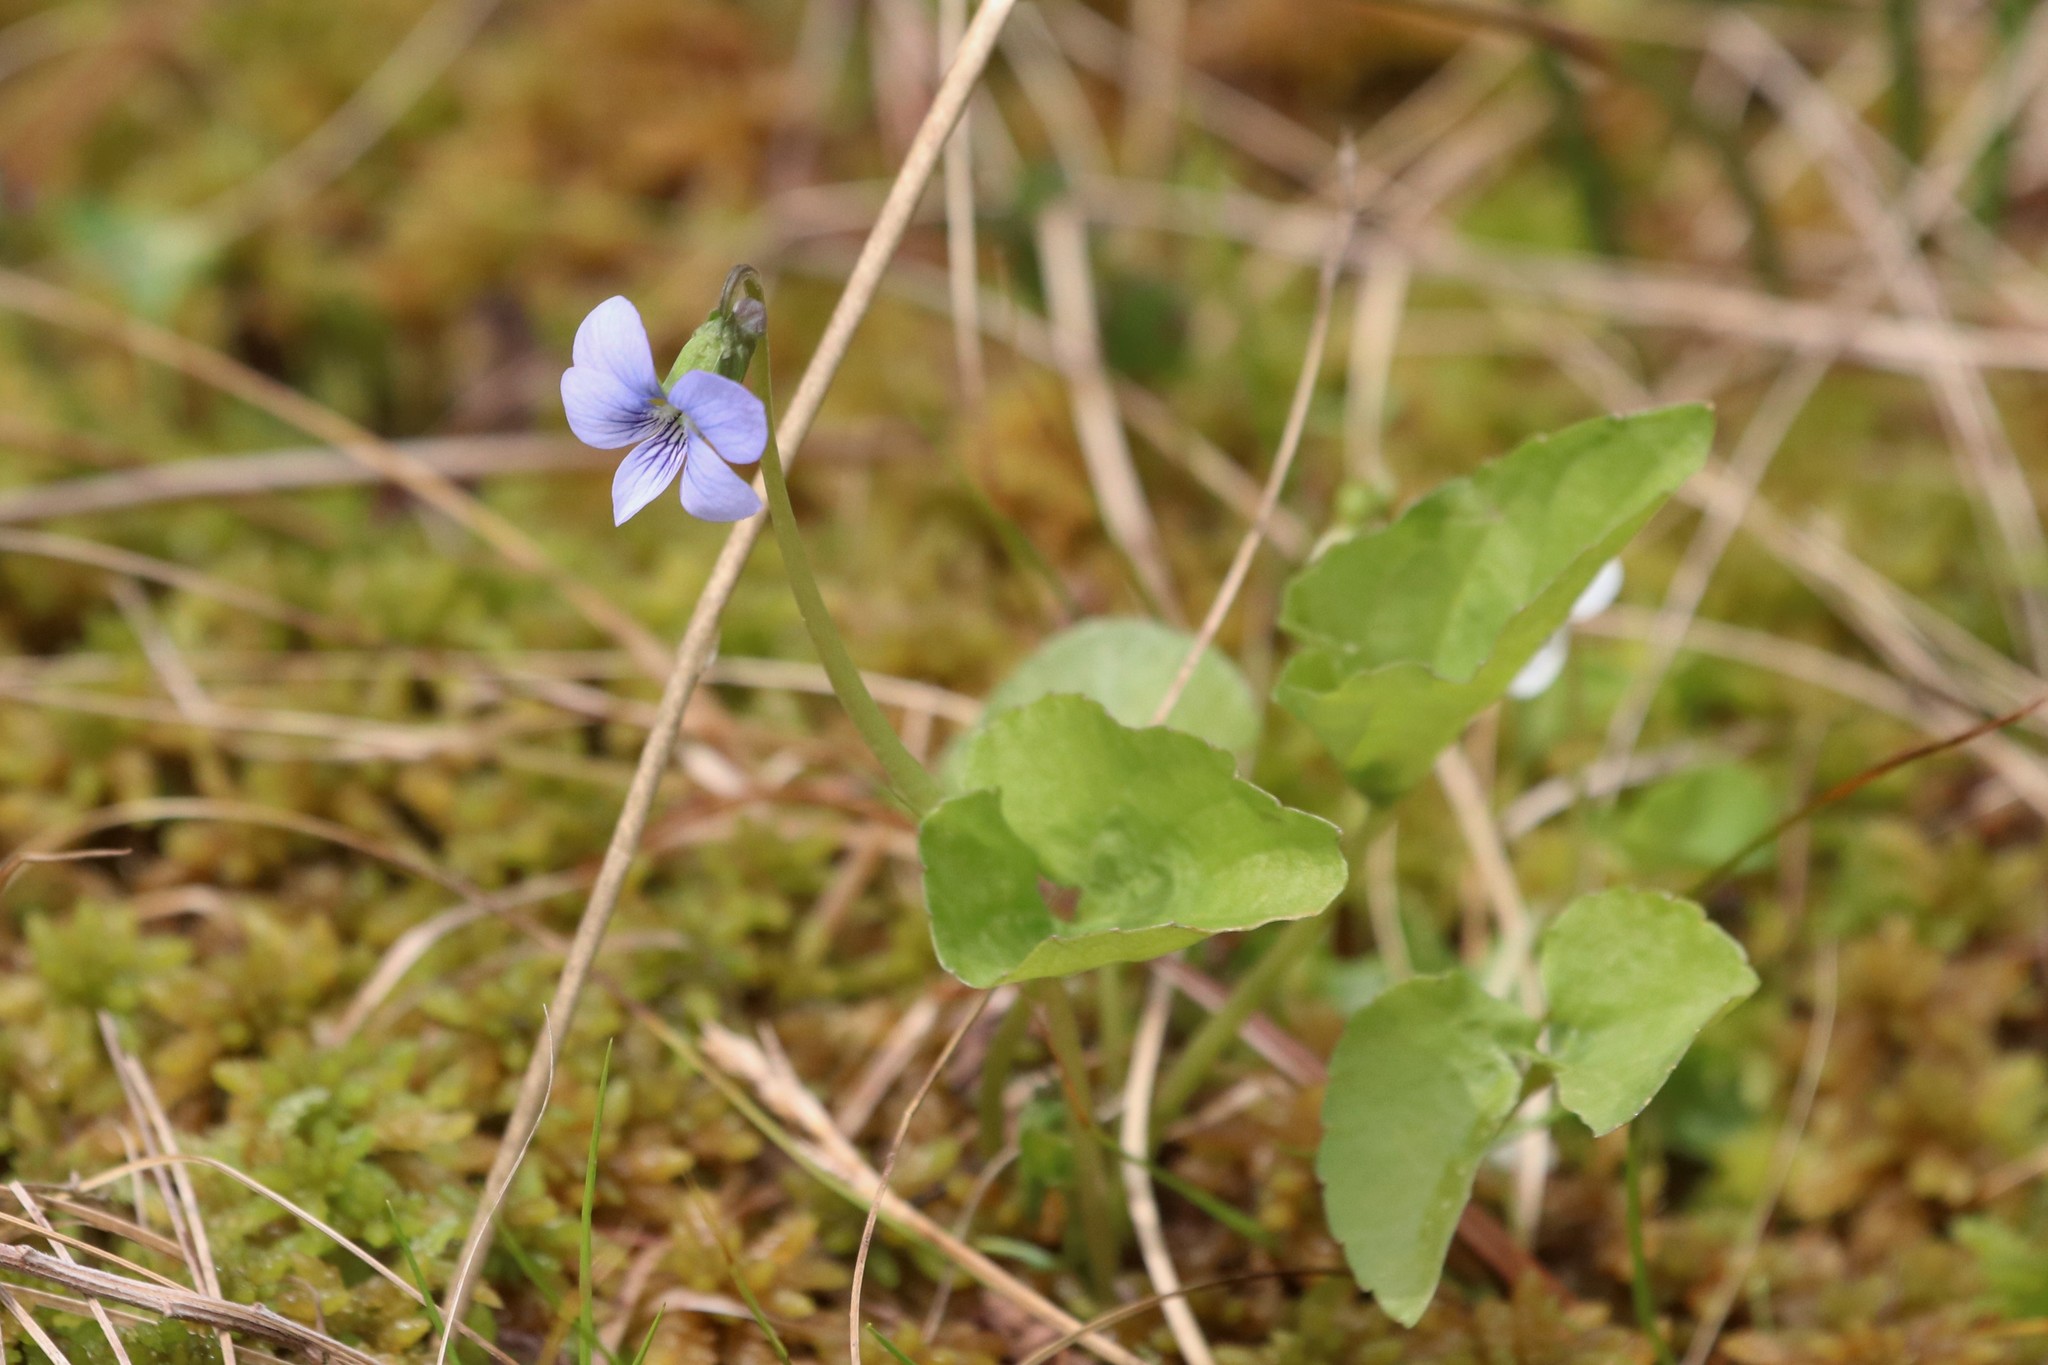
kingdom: Plantae
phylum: Tracheophyta
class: Magnoliopsida
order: Malpighiales
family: Violaceae
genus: Viola
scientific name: Viola cucullata
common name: Marsh blue violet
